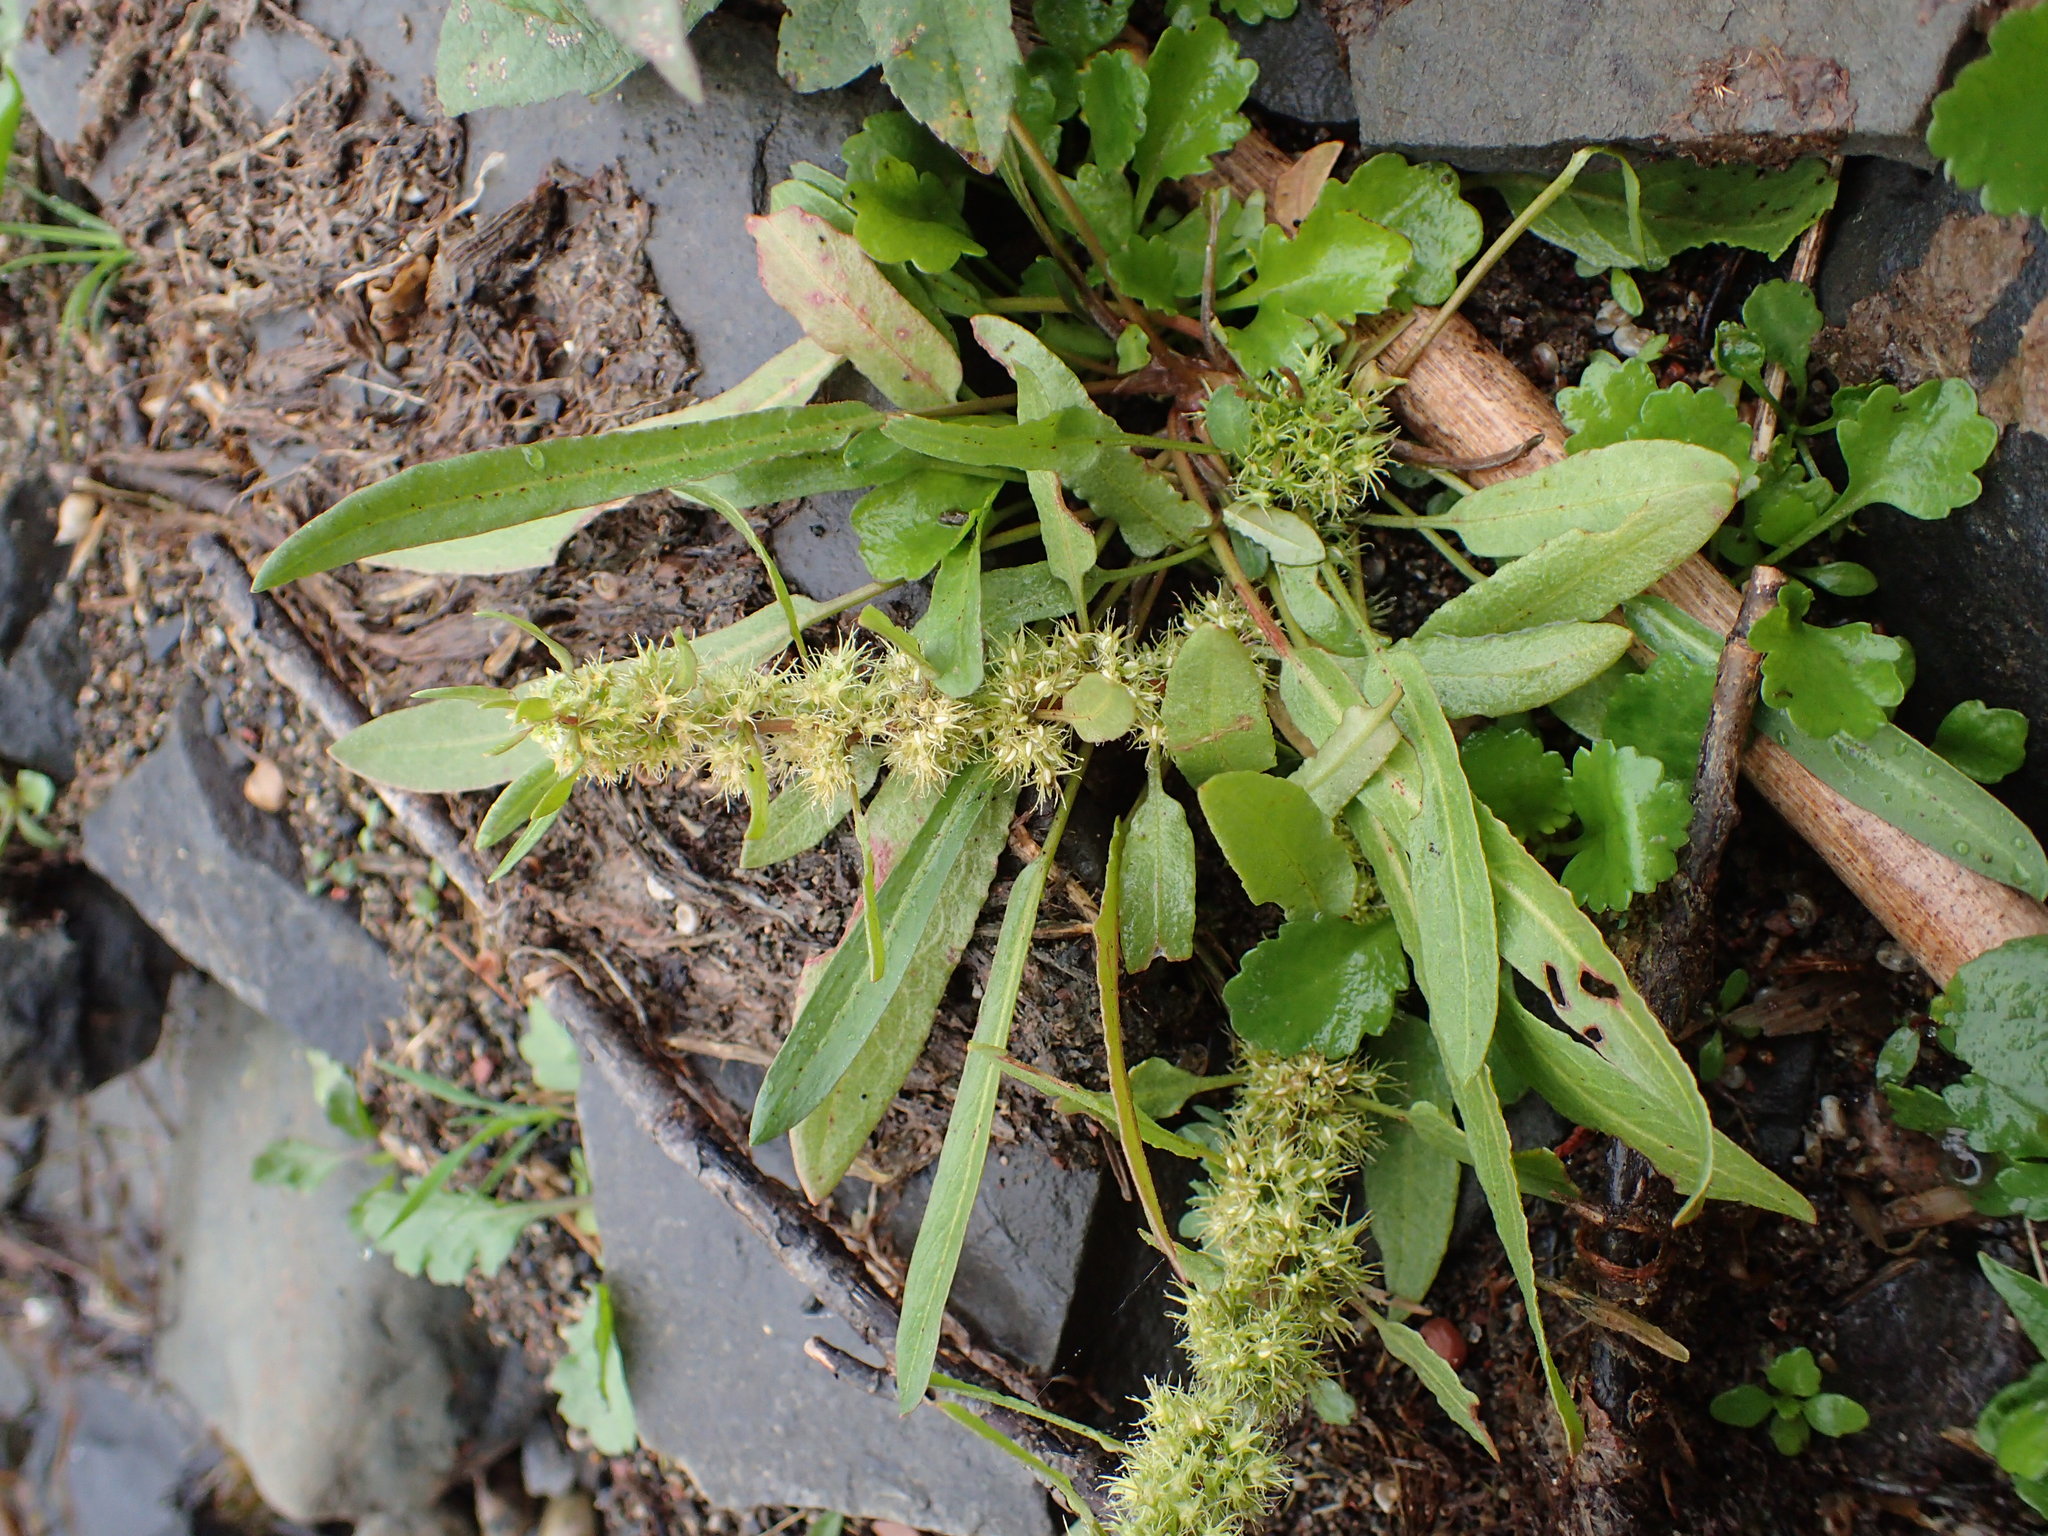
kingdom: Plantae
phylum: Tracheophyta
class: Magnoliopsida
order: Caryophyllales
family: Polygonaceae
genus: Rumex
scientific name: Rumex fueginus
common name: American golden dock
